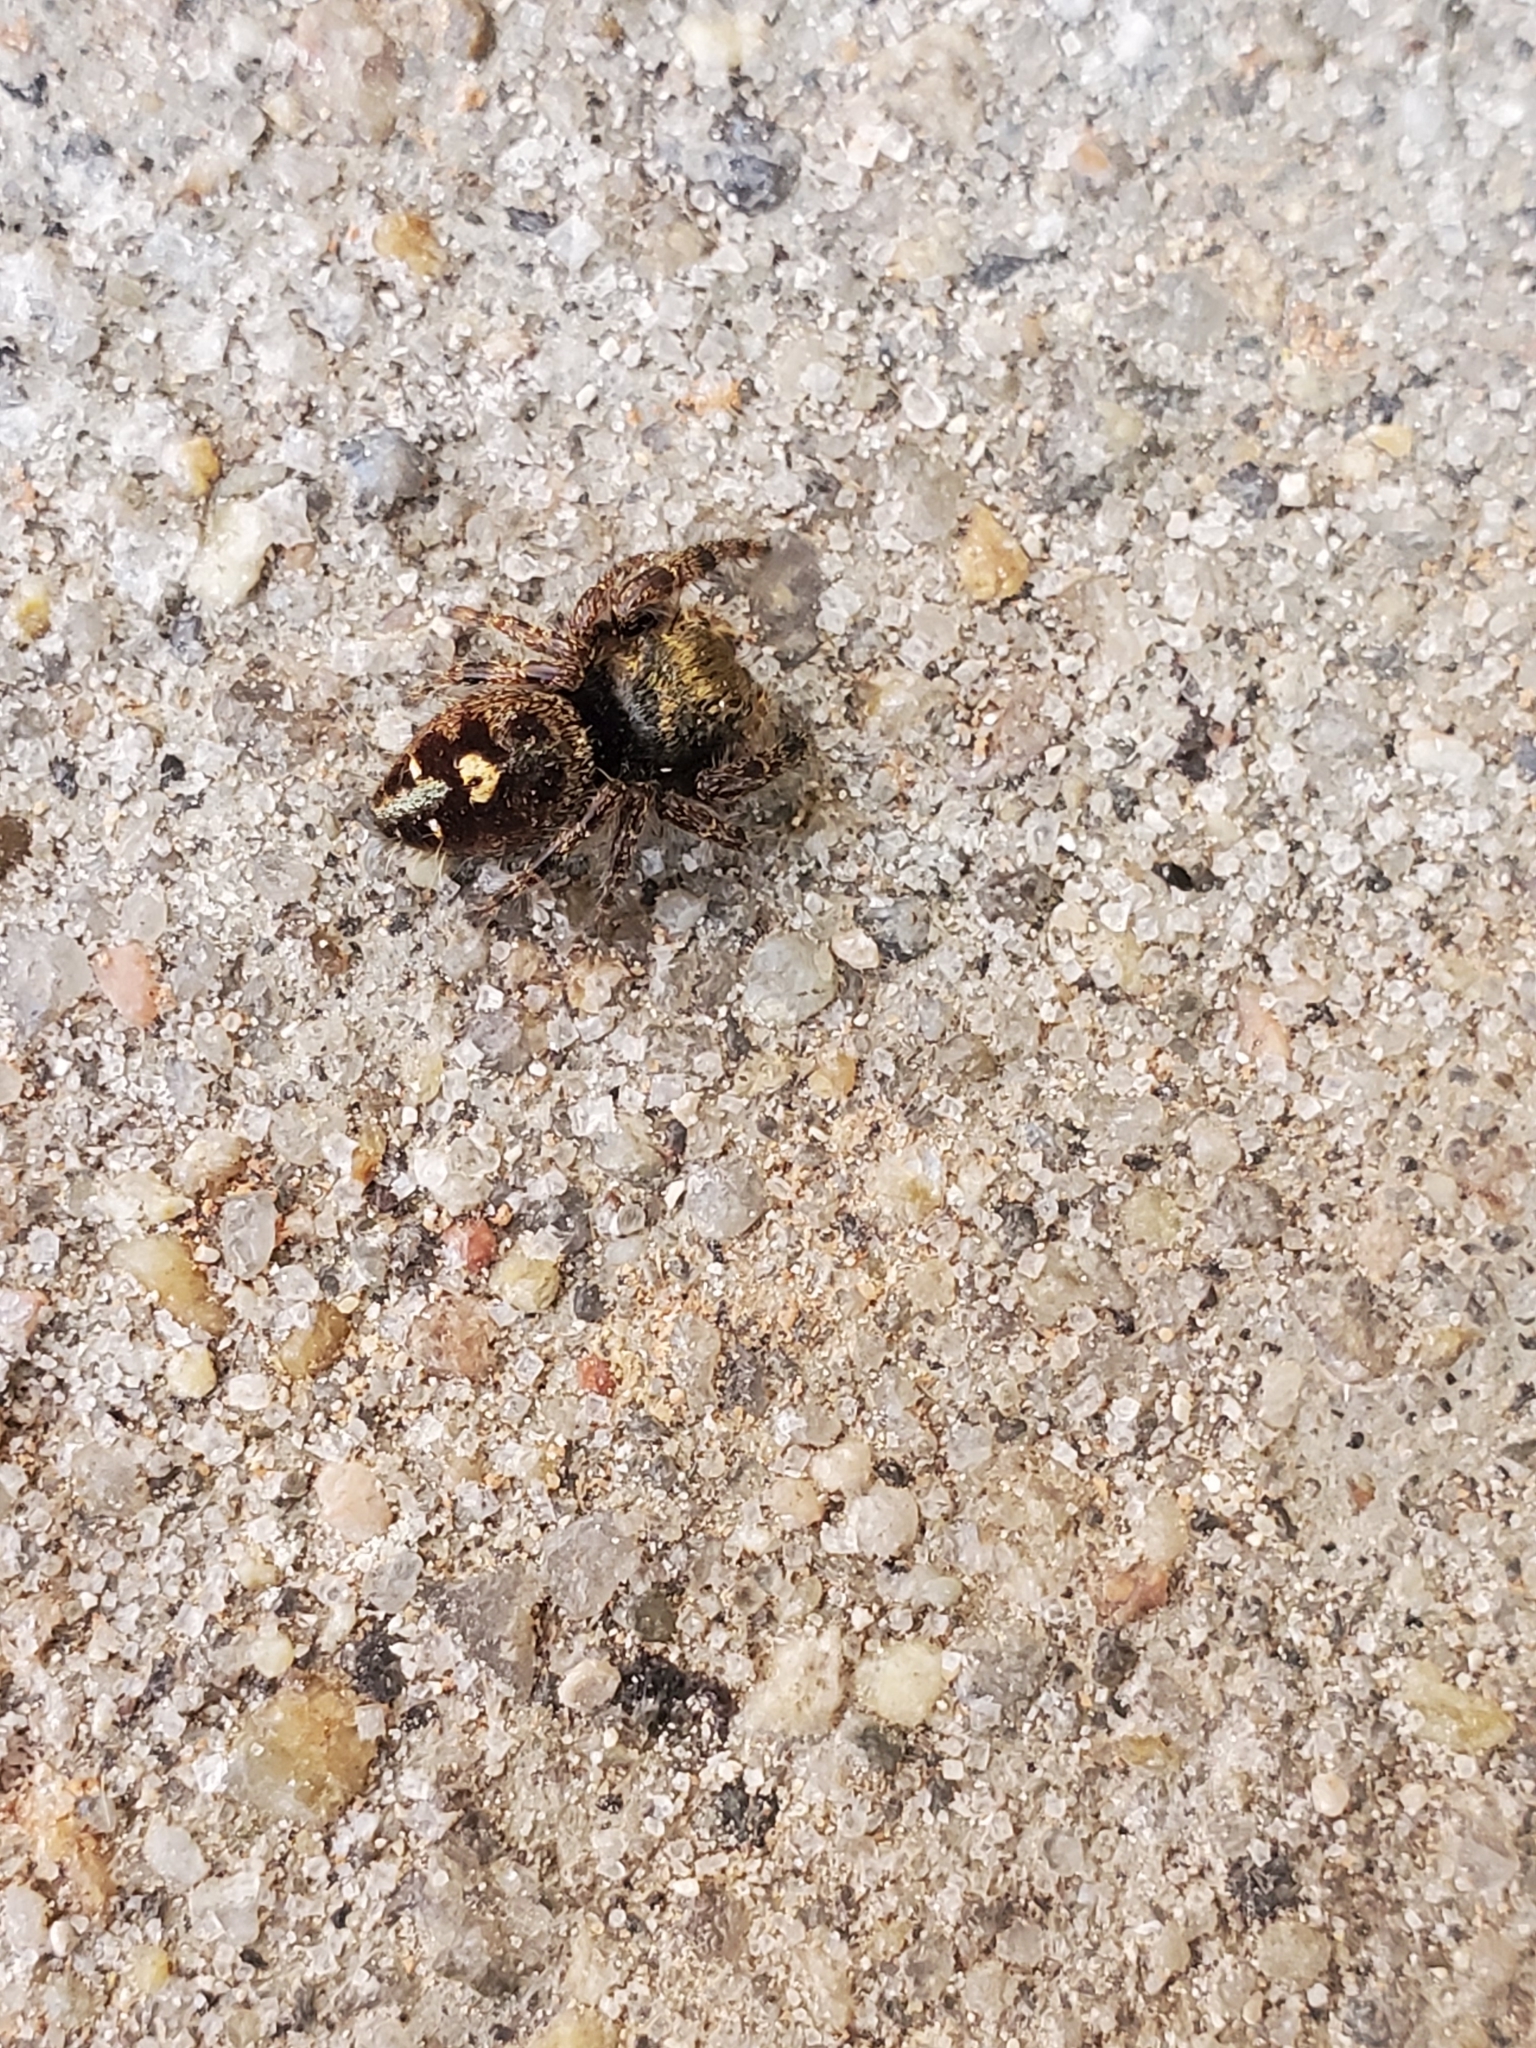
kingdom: Animalia
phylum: Arthropoda
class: Arachnida
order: Araneae
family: Salticidae
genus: Phidippus
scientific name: Phidippus audax
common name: Bold jumper
